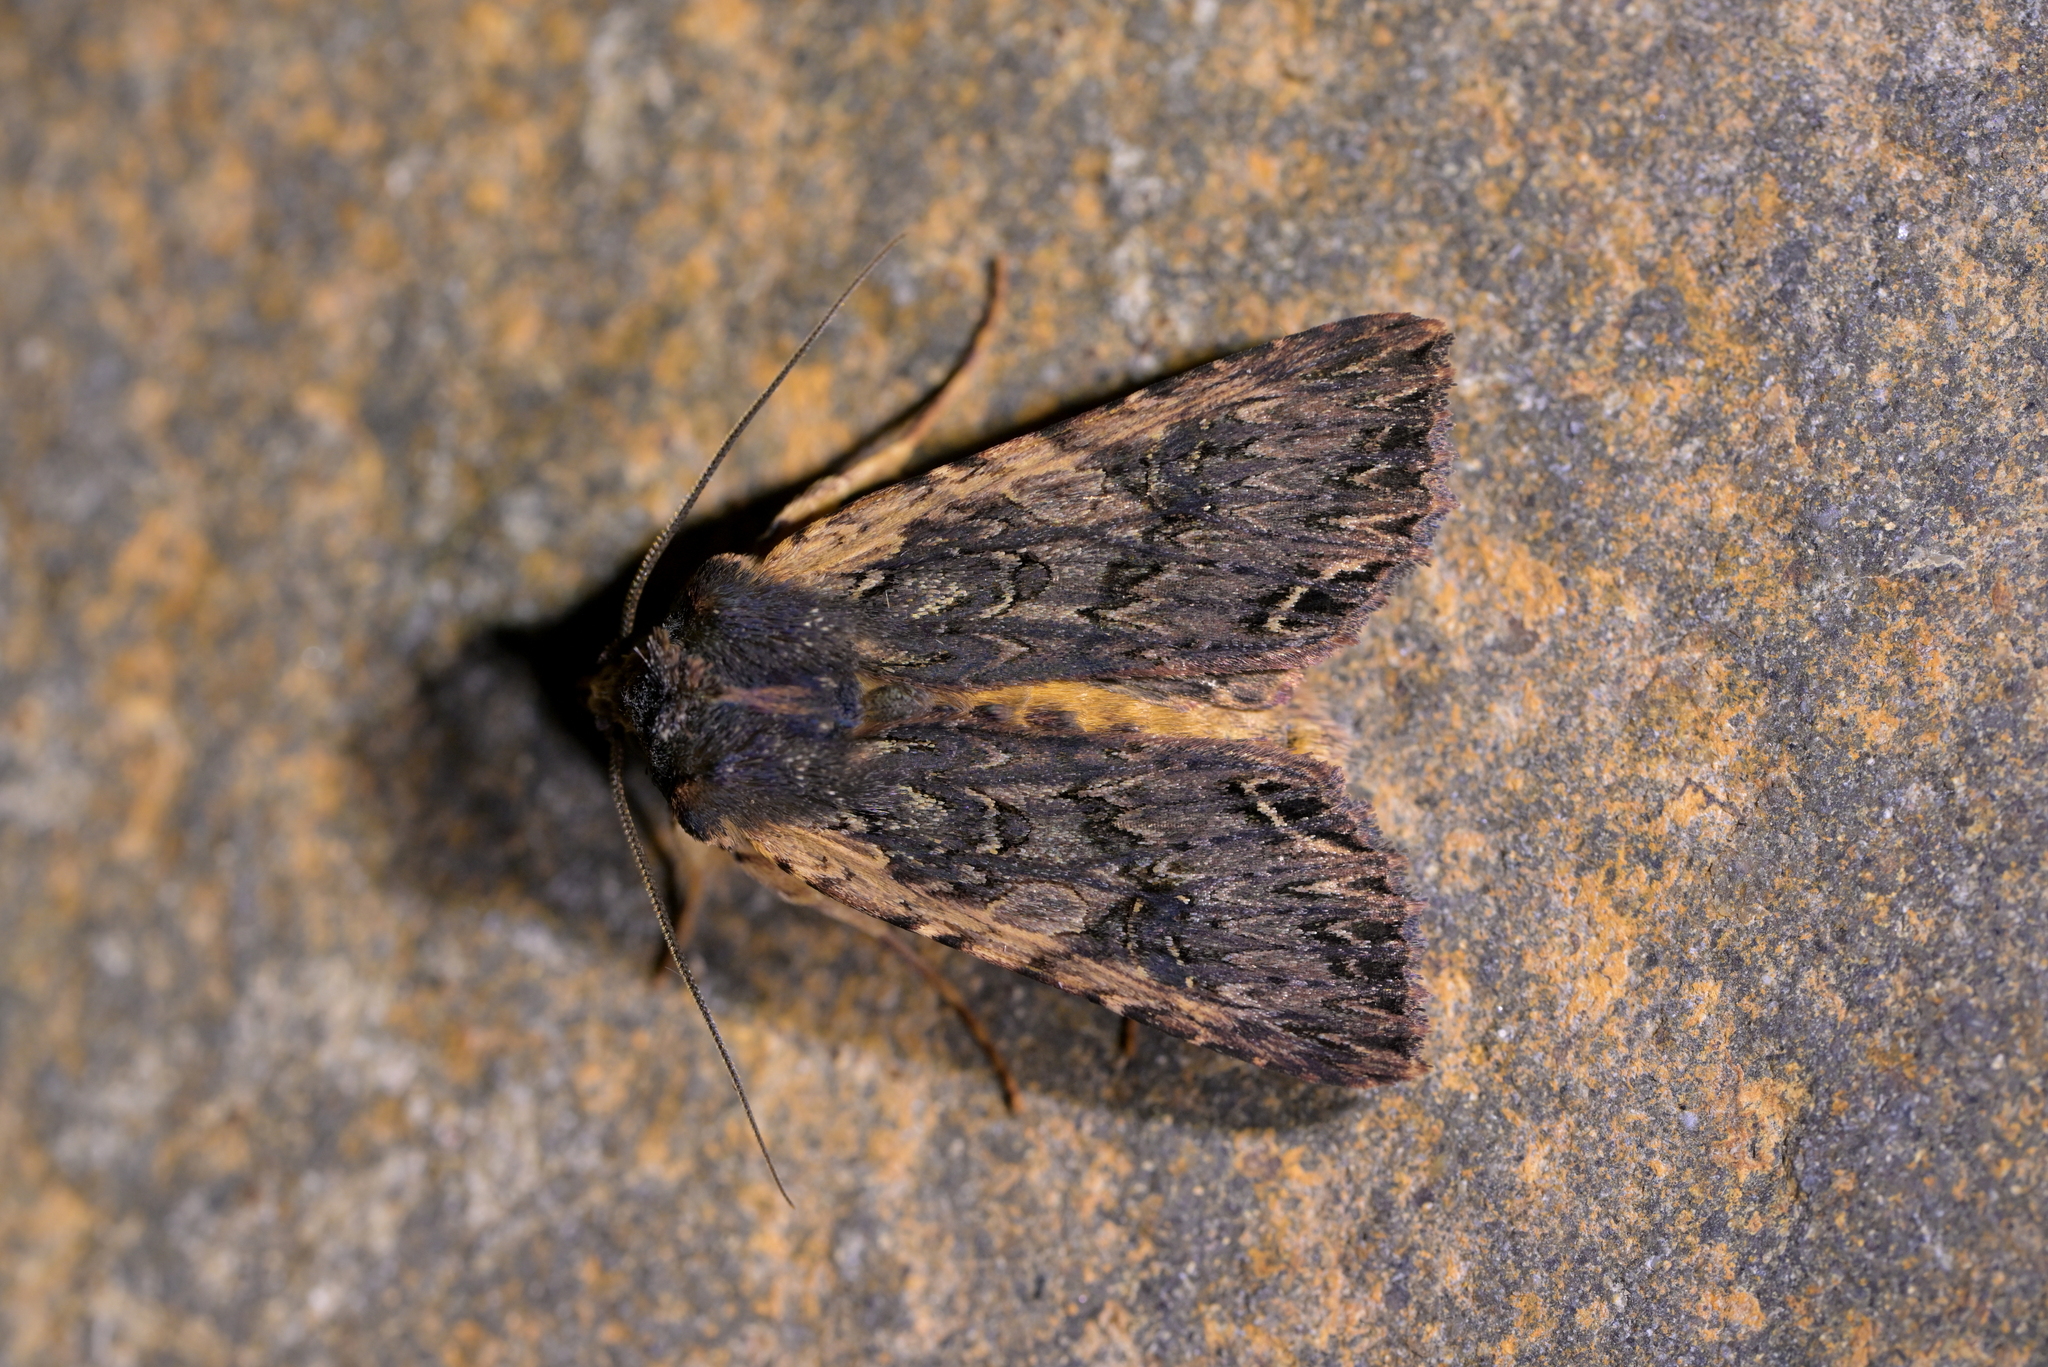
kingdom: Animalia
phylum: Arthropoda
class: Insecta
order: Lepidoptera
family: Noctuidae
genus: Meterana
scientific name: Meterana alcyone
